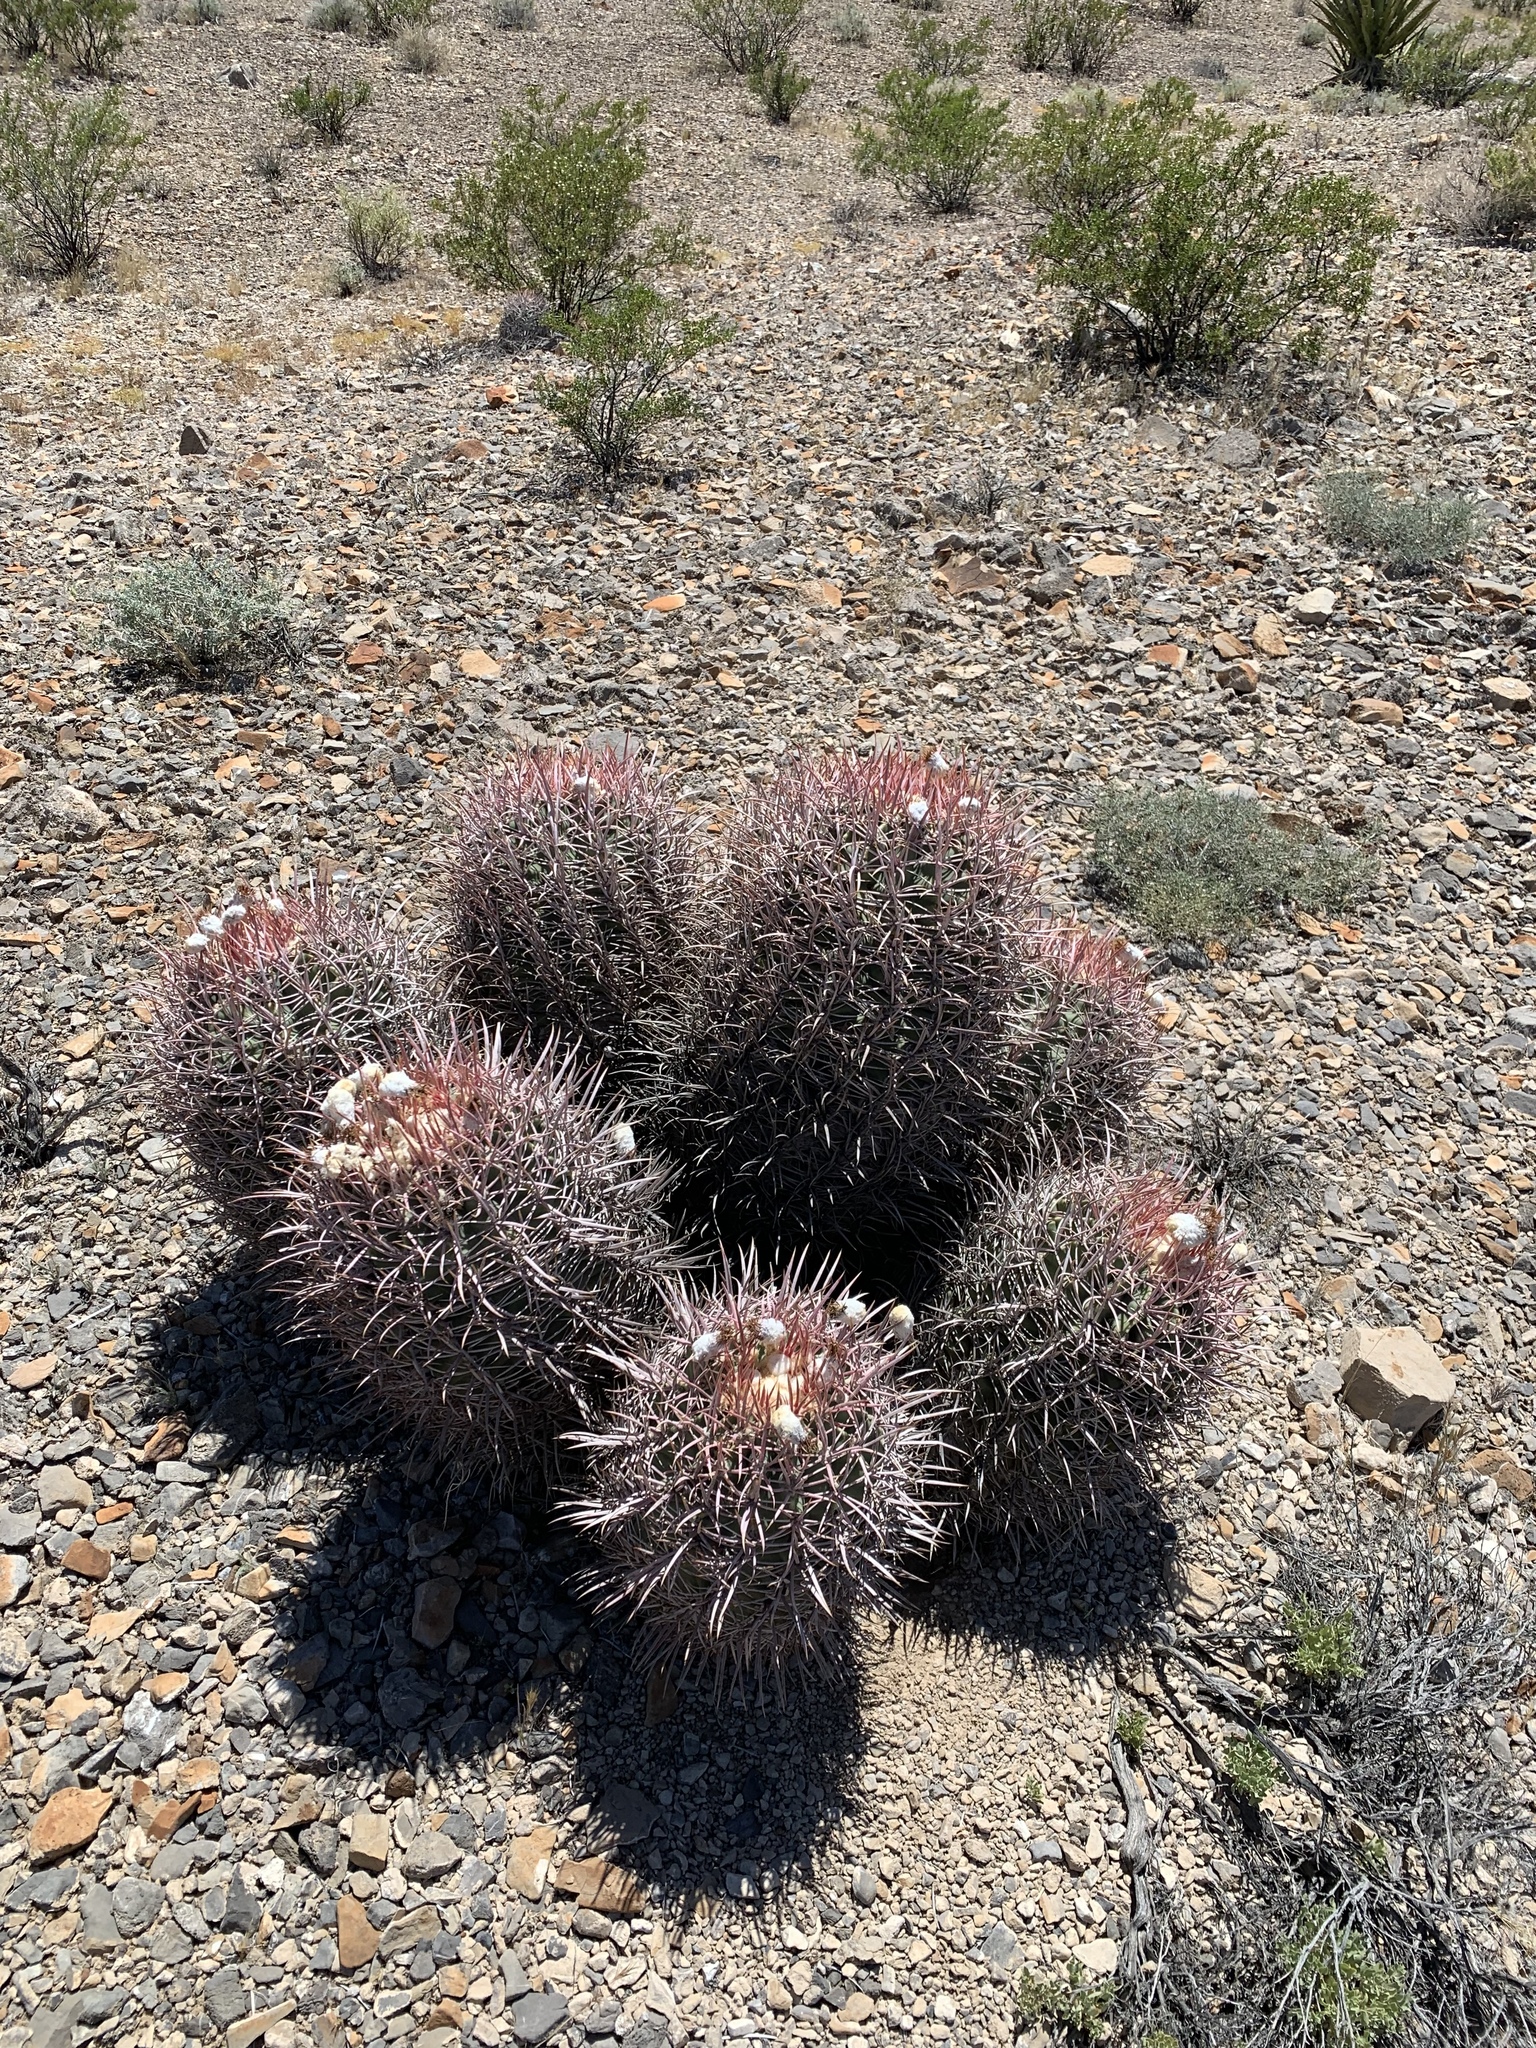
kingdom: Plantae
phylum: Tracheophyta
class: Magnoliopsida
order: Caryophyllales
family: Cactaceae
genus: Echinocactus
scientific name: Echinocactus polycephalus
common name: Cottontop cactus
